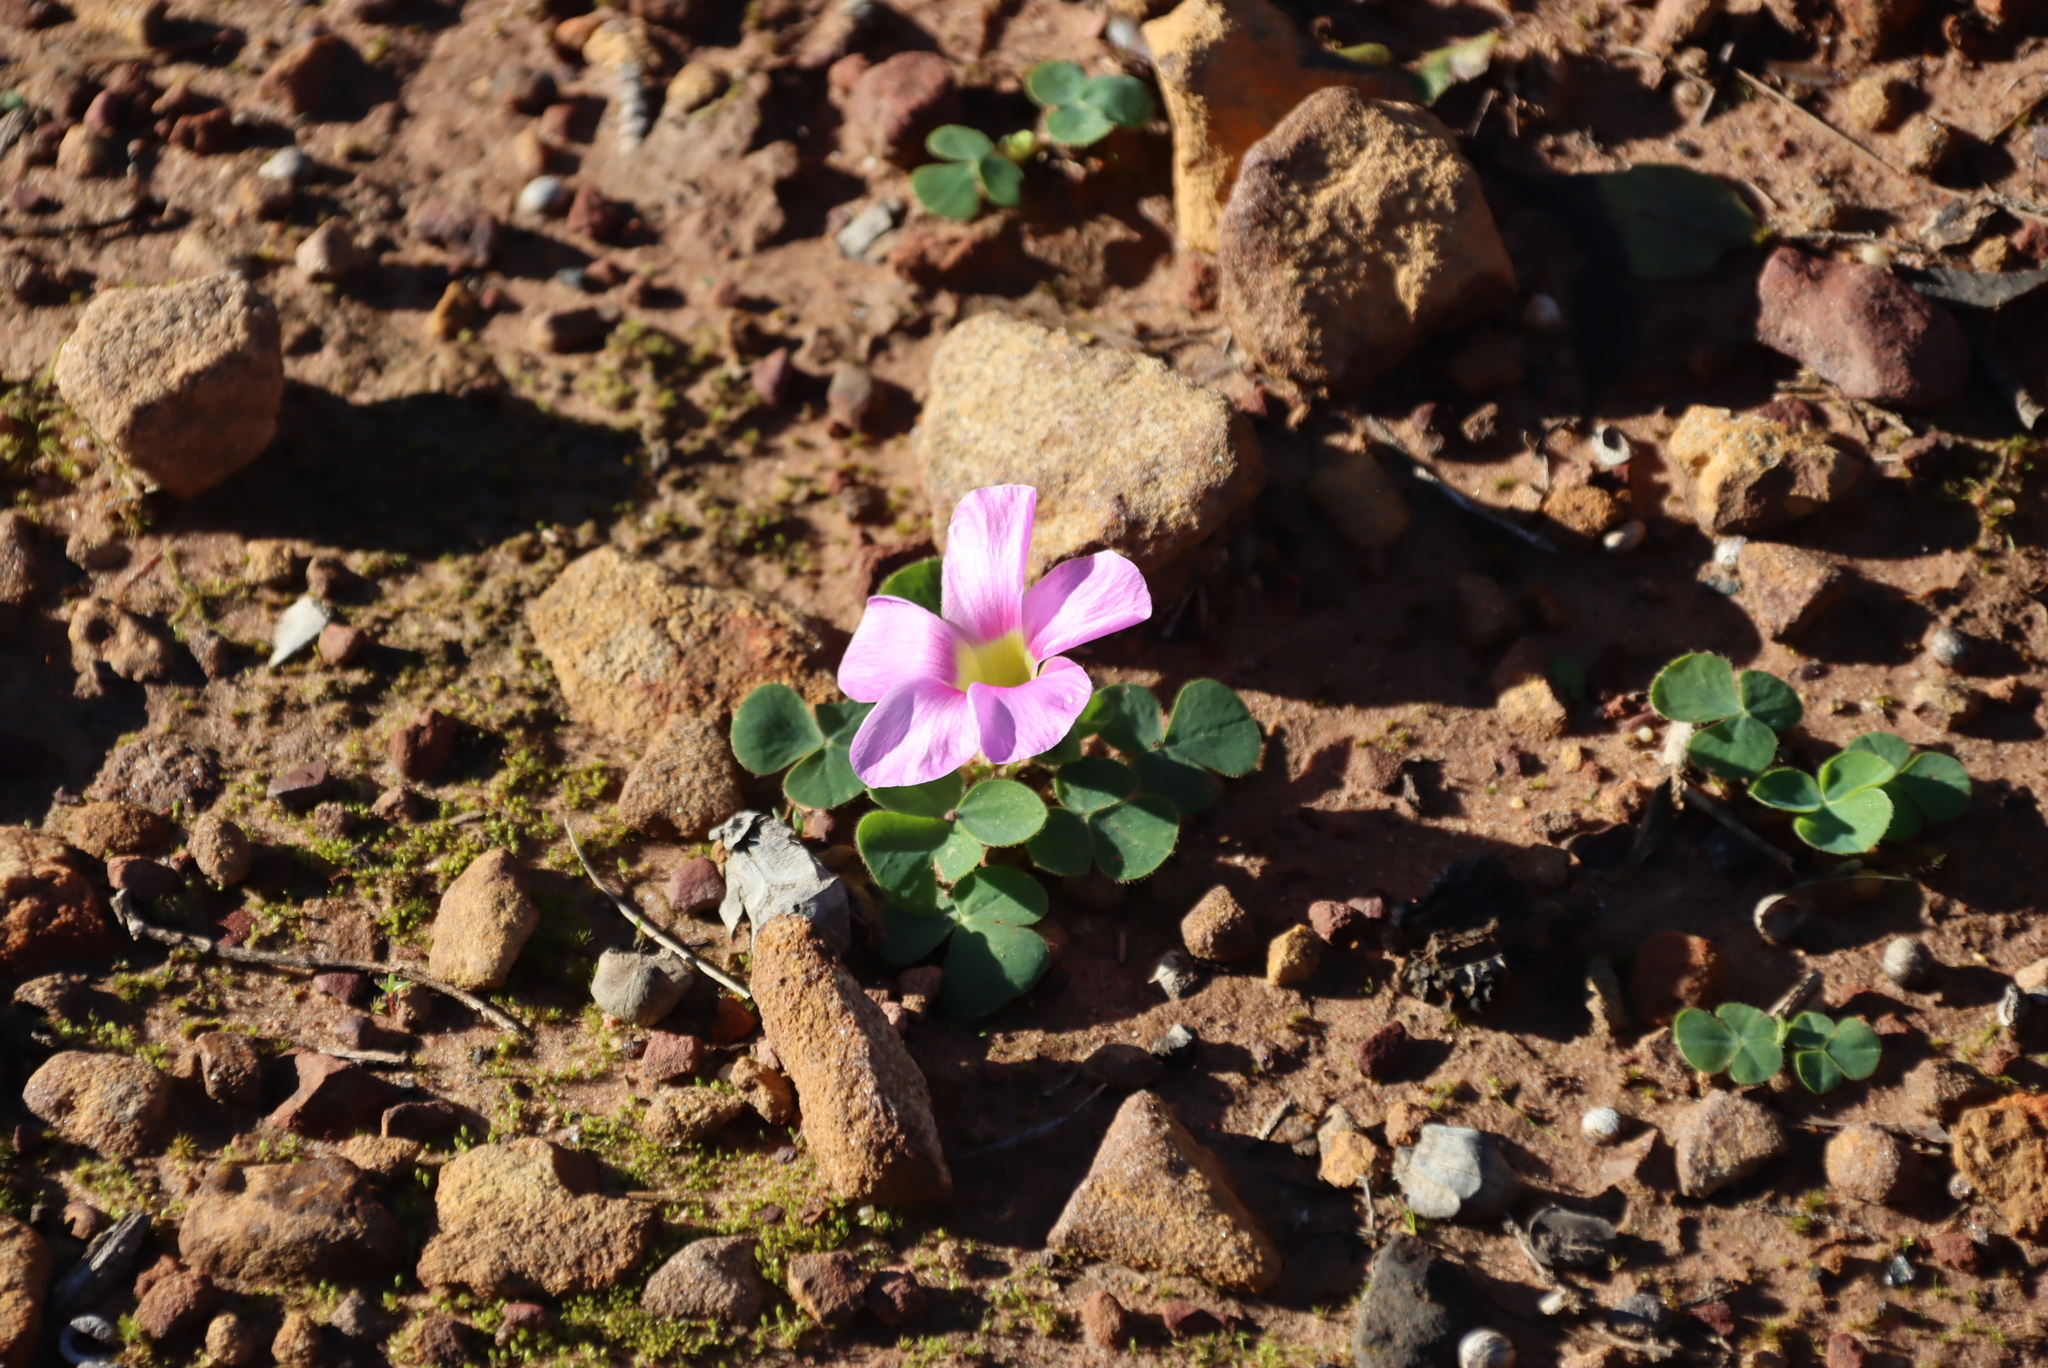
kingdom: Plantae
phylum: Tracheophyta
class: Magnoliopsida
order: Oxalidales
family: Oxalidaceae
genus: Oxalis
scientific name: Oxalis purpurea
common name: Purple woodsorrel
